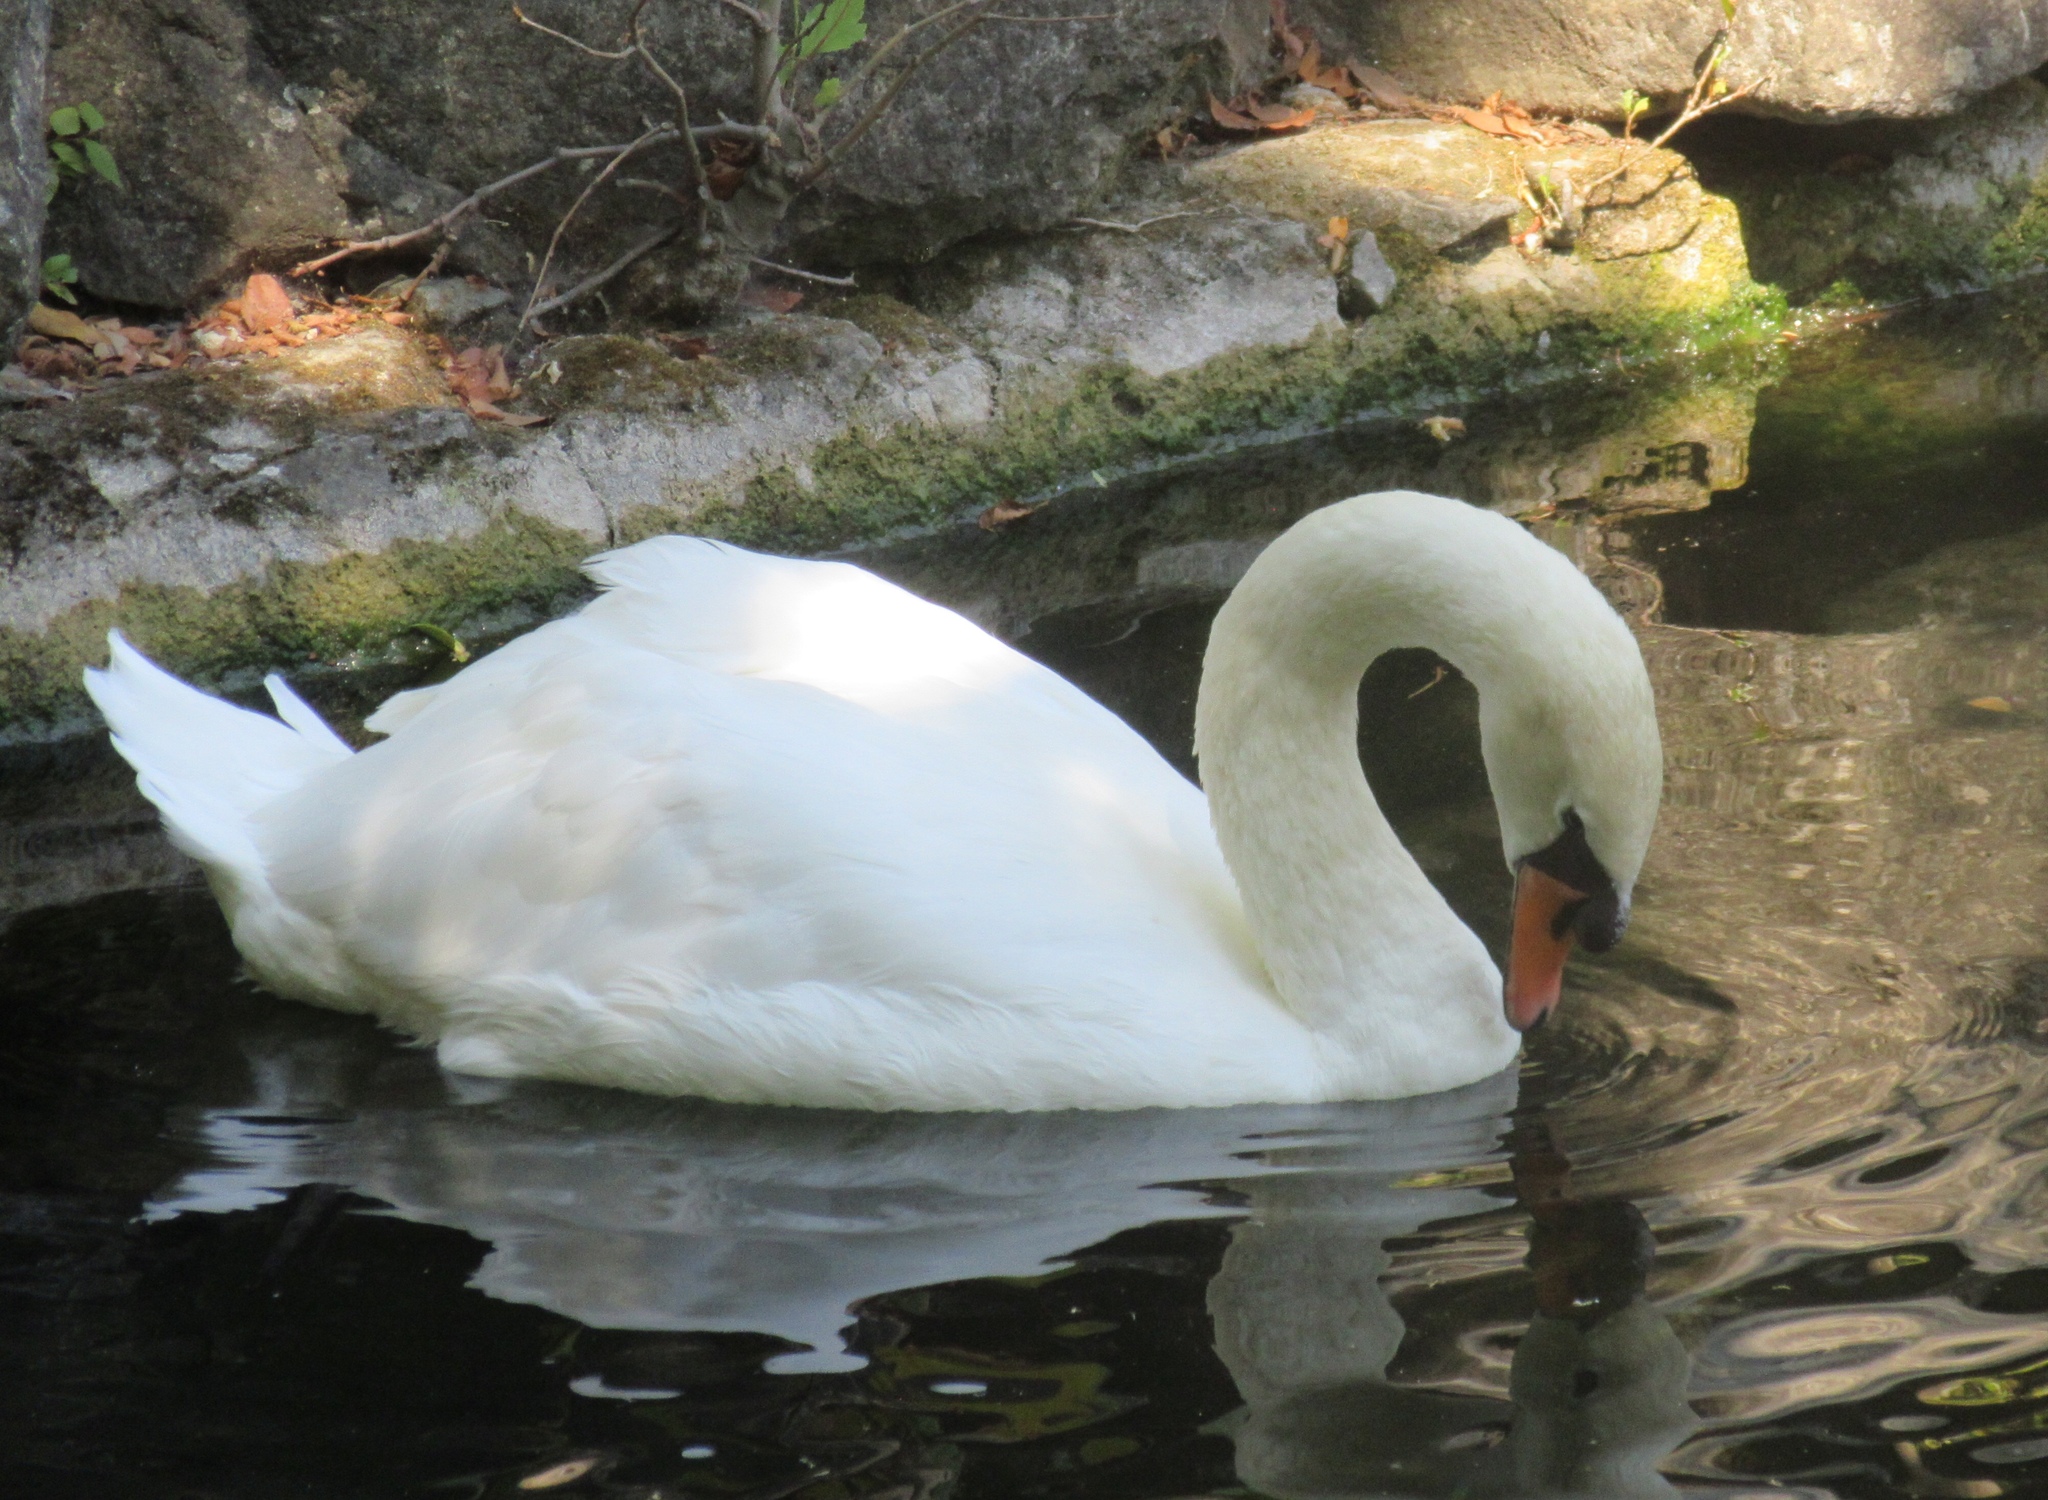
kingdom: Animalia
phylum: Chordata
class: Aves
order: Anseriformes
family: Anatidae
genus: Cygnus
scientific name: Cygnus olor
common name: Mute swan
